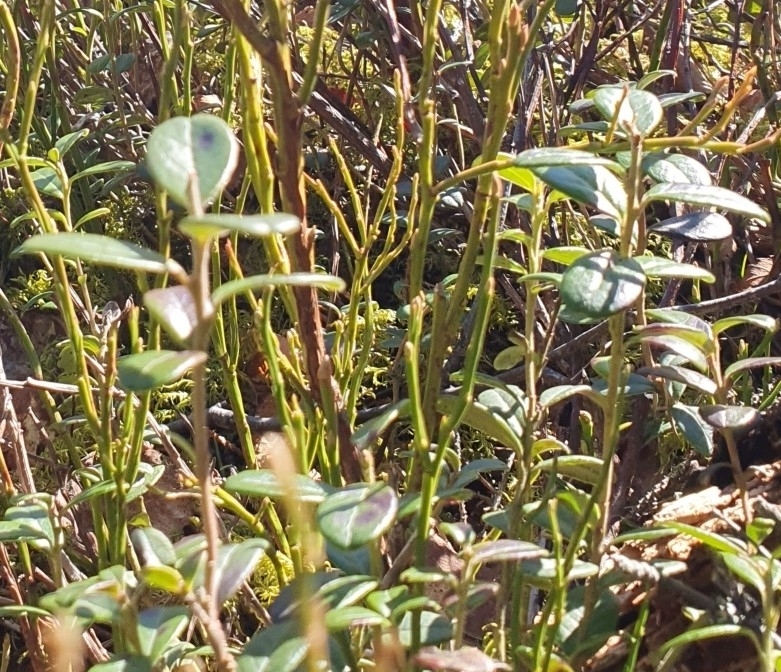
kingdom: Plantae
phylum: Tracheophyta
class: Magnoliopsida
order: Ericales
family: Ericaceae
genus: Vaccinium
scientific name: Vaccinium vitis-idaea
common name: Cowberry
